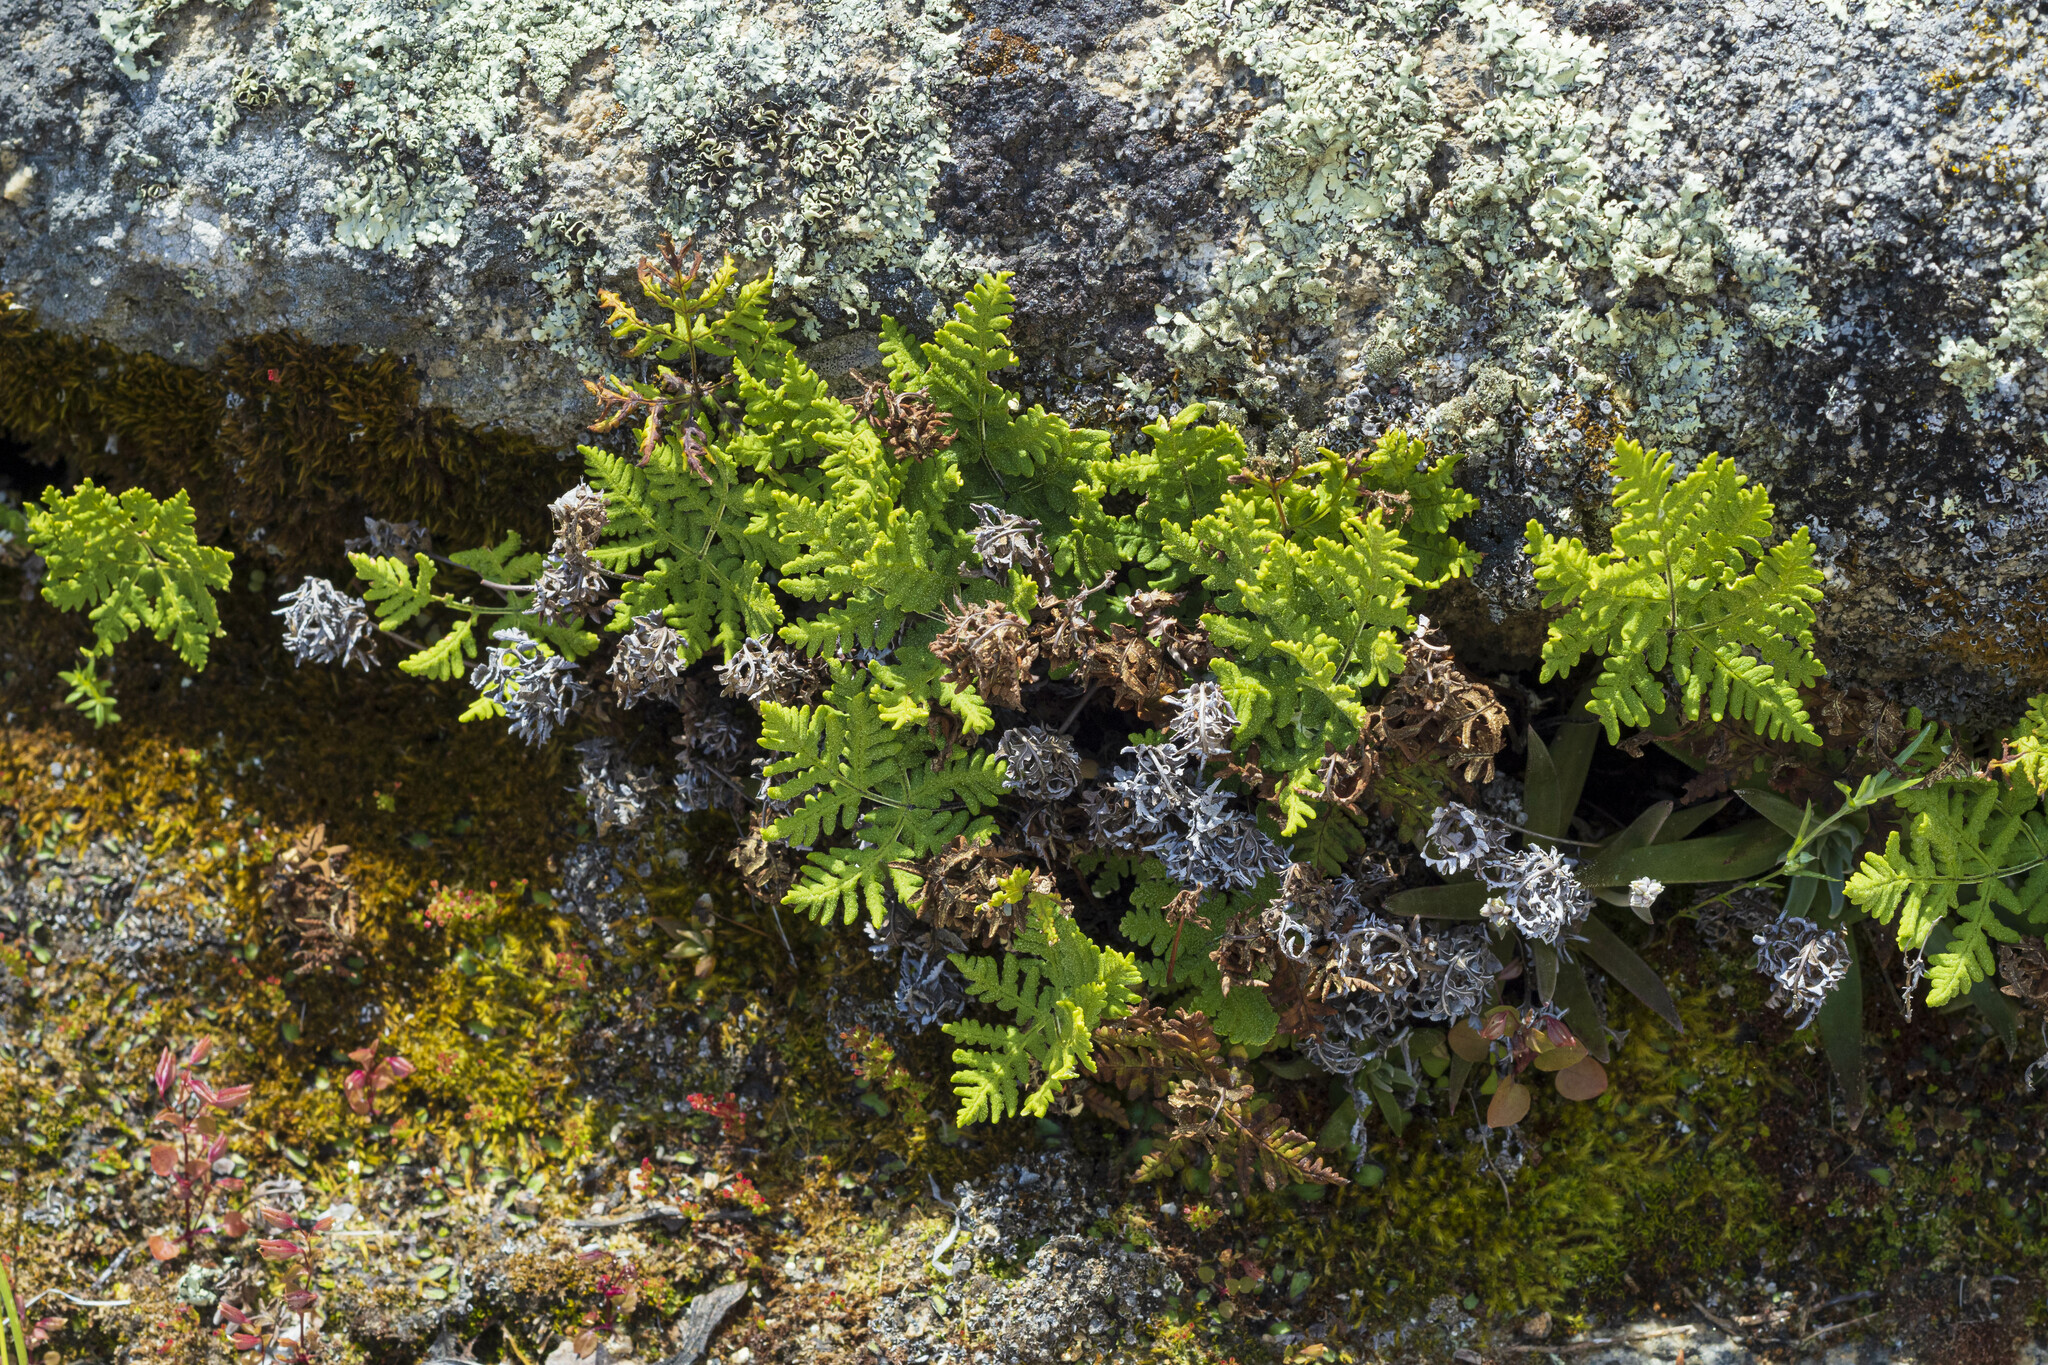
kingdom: Plantae
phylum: Tracheophyta
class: Polypodiopsida
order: Polypodiales
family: Pteridaceae
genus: Pentagramma
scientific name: Pentagramma rebmanii
